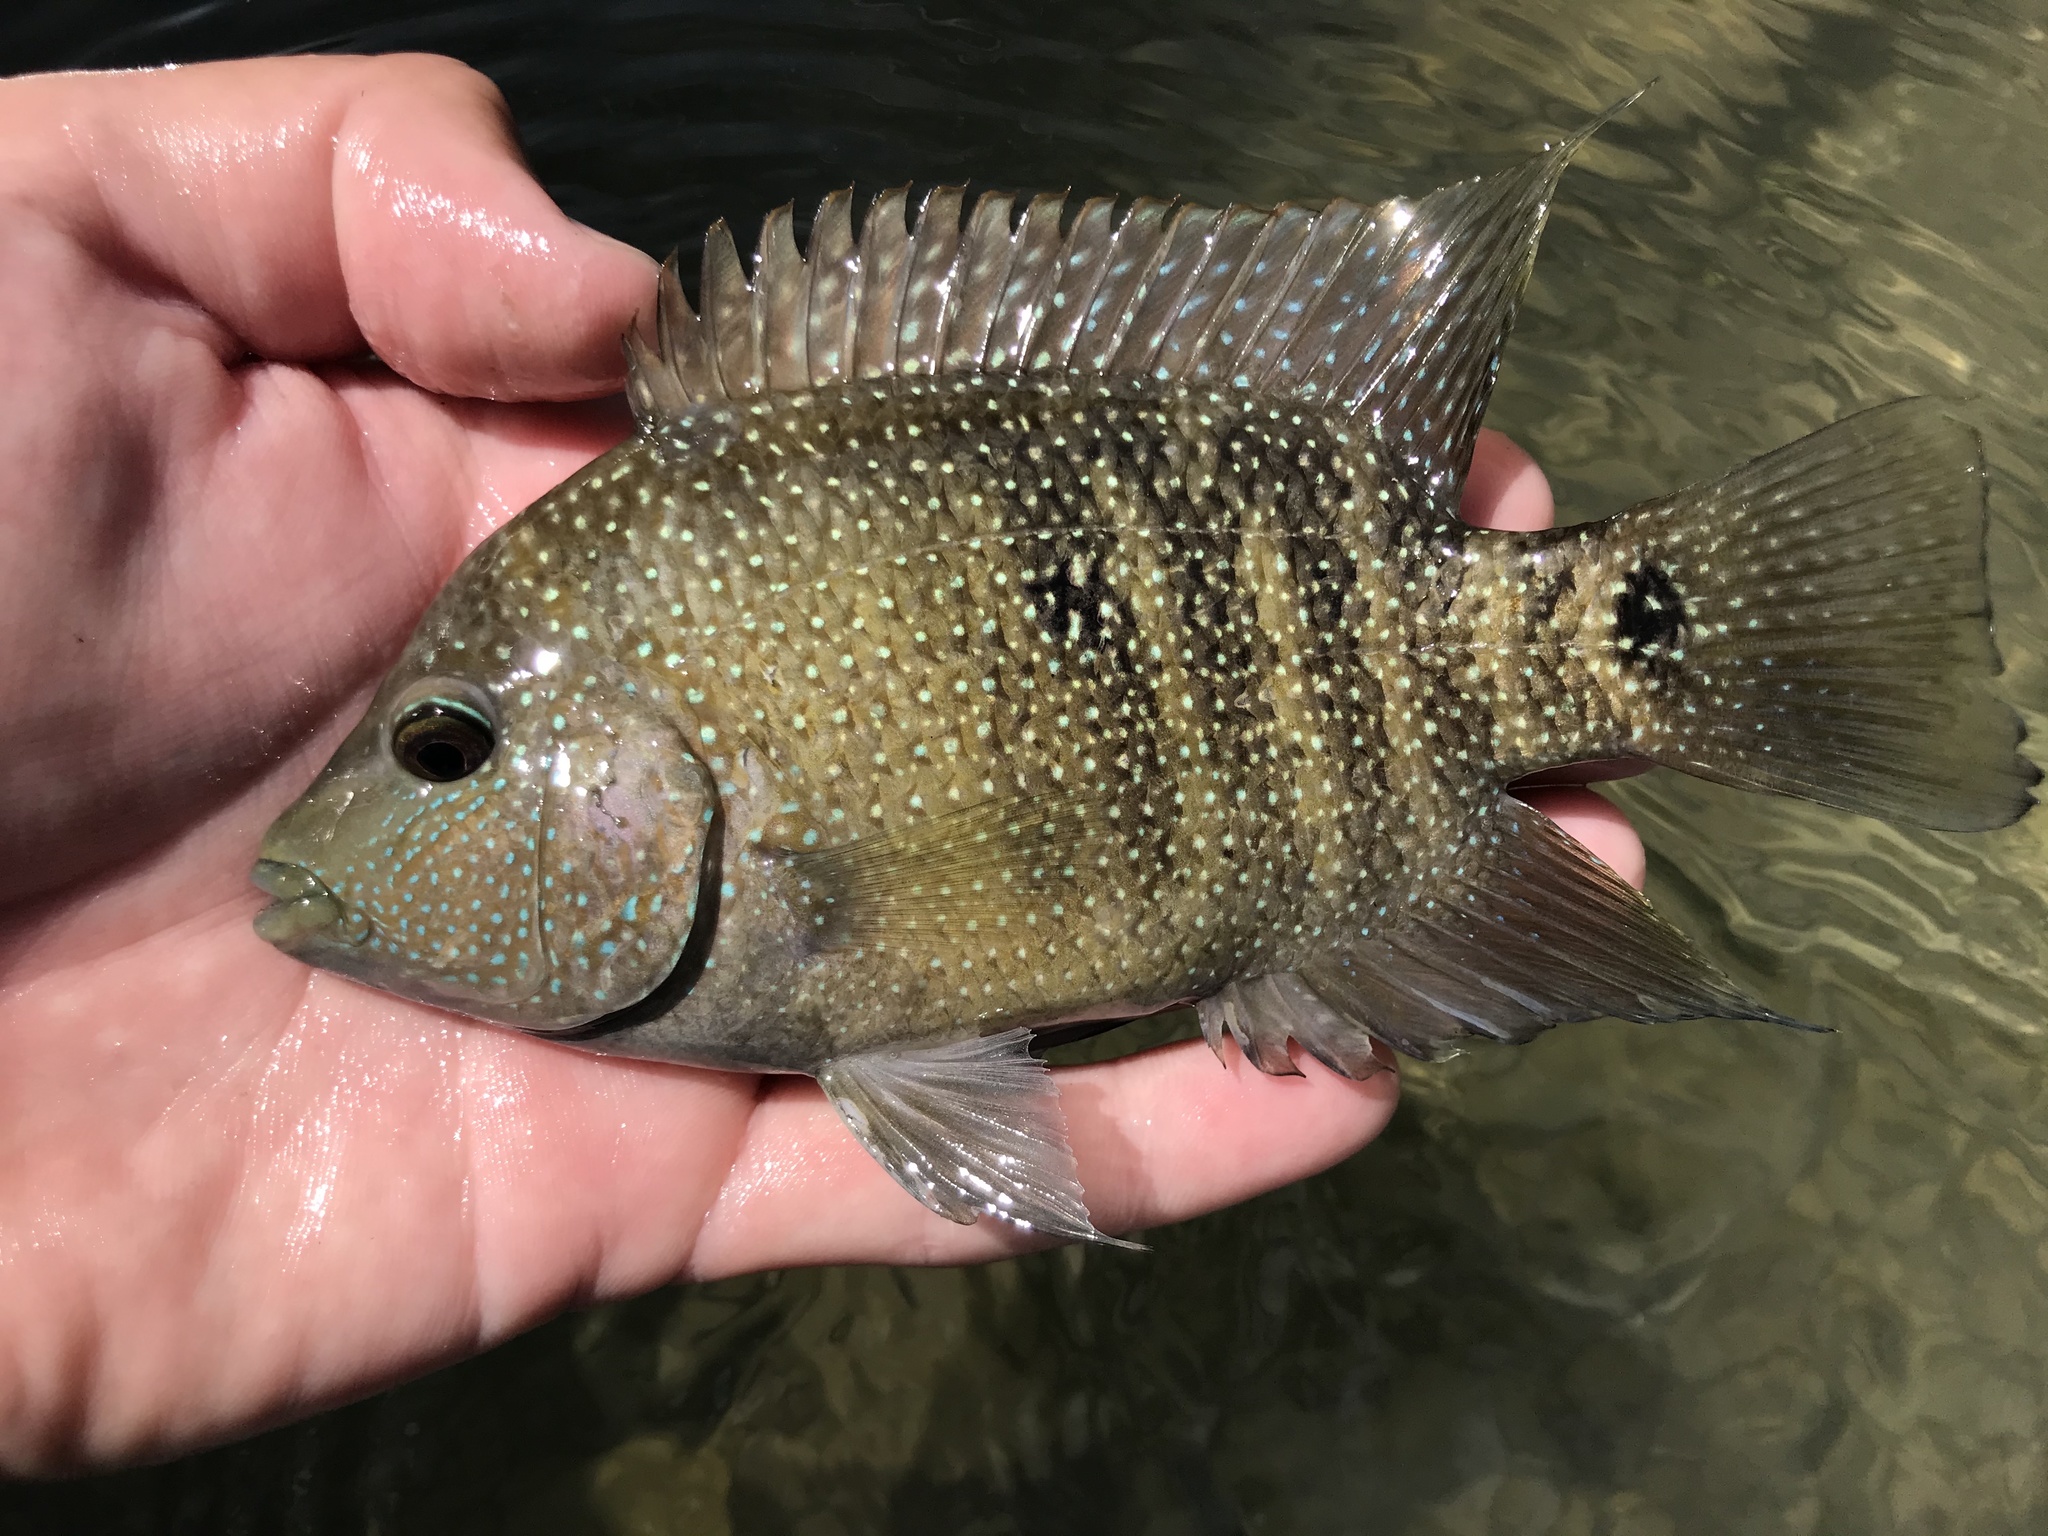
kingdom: Animalia
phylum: Chordata
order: Perciformes
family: Cichlidae
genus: Herichthys
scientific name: Herichthys cyanoguttatus
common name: Rio grande cichlid
